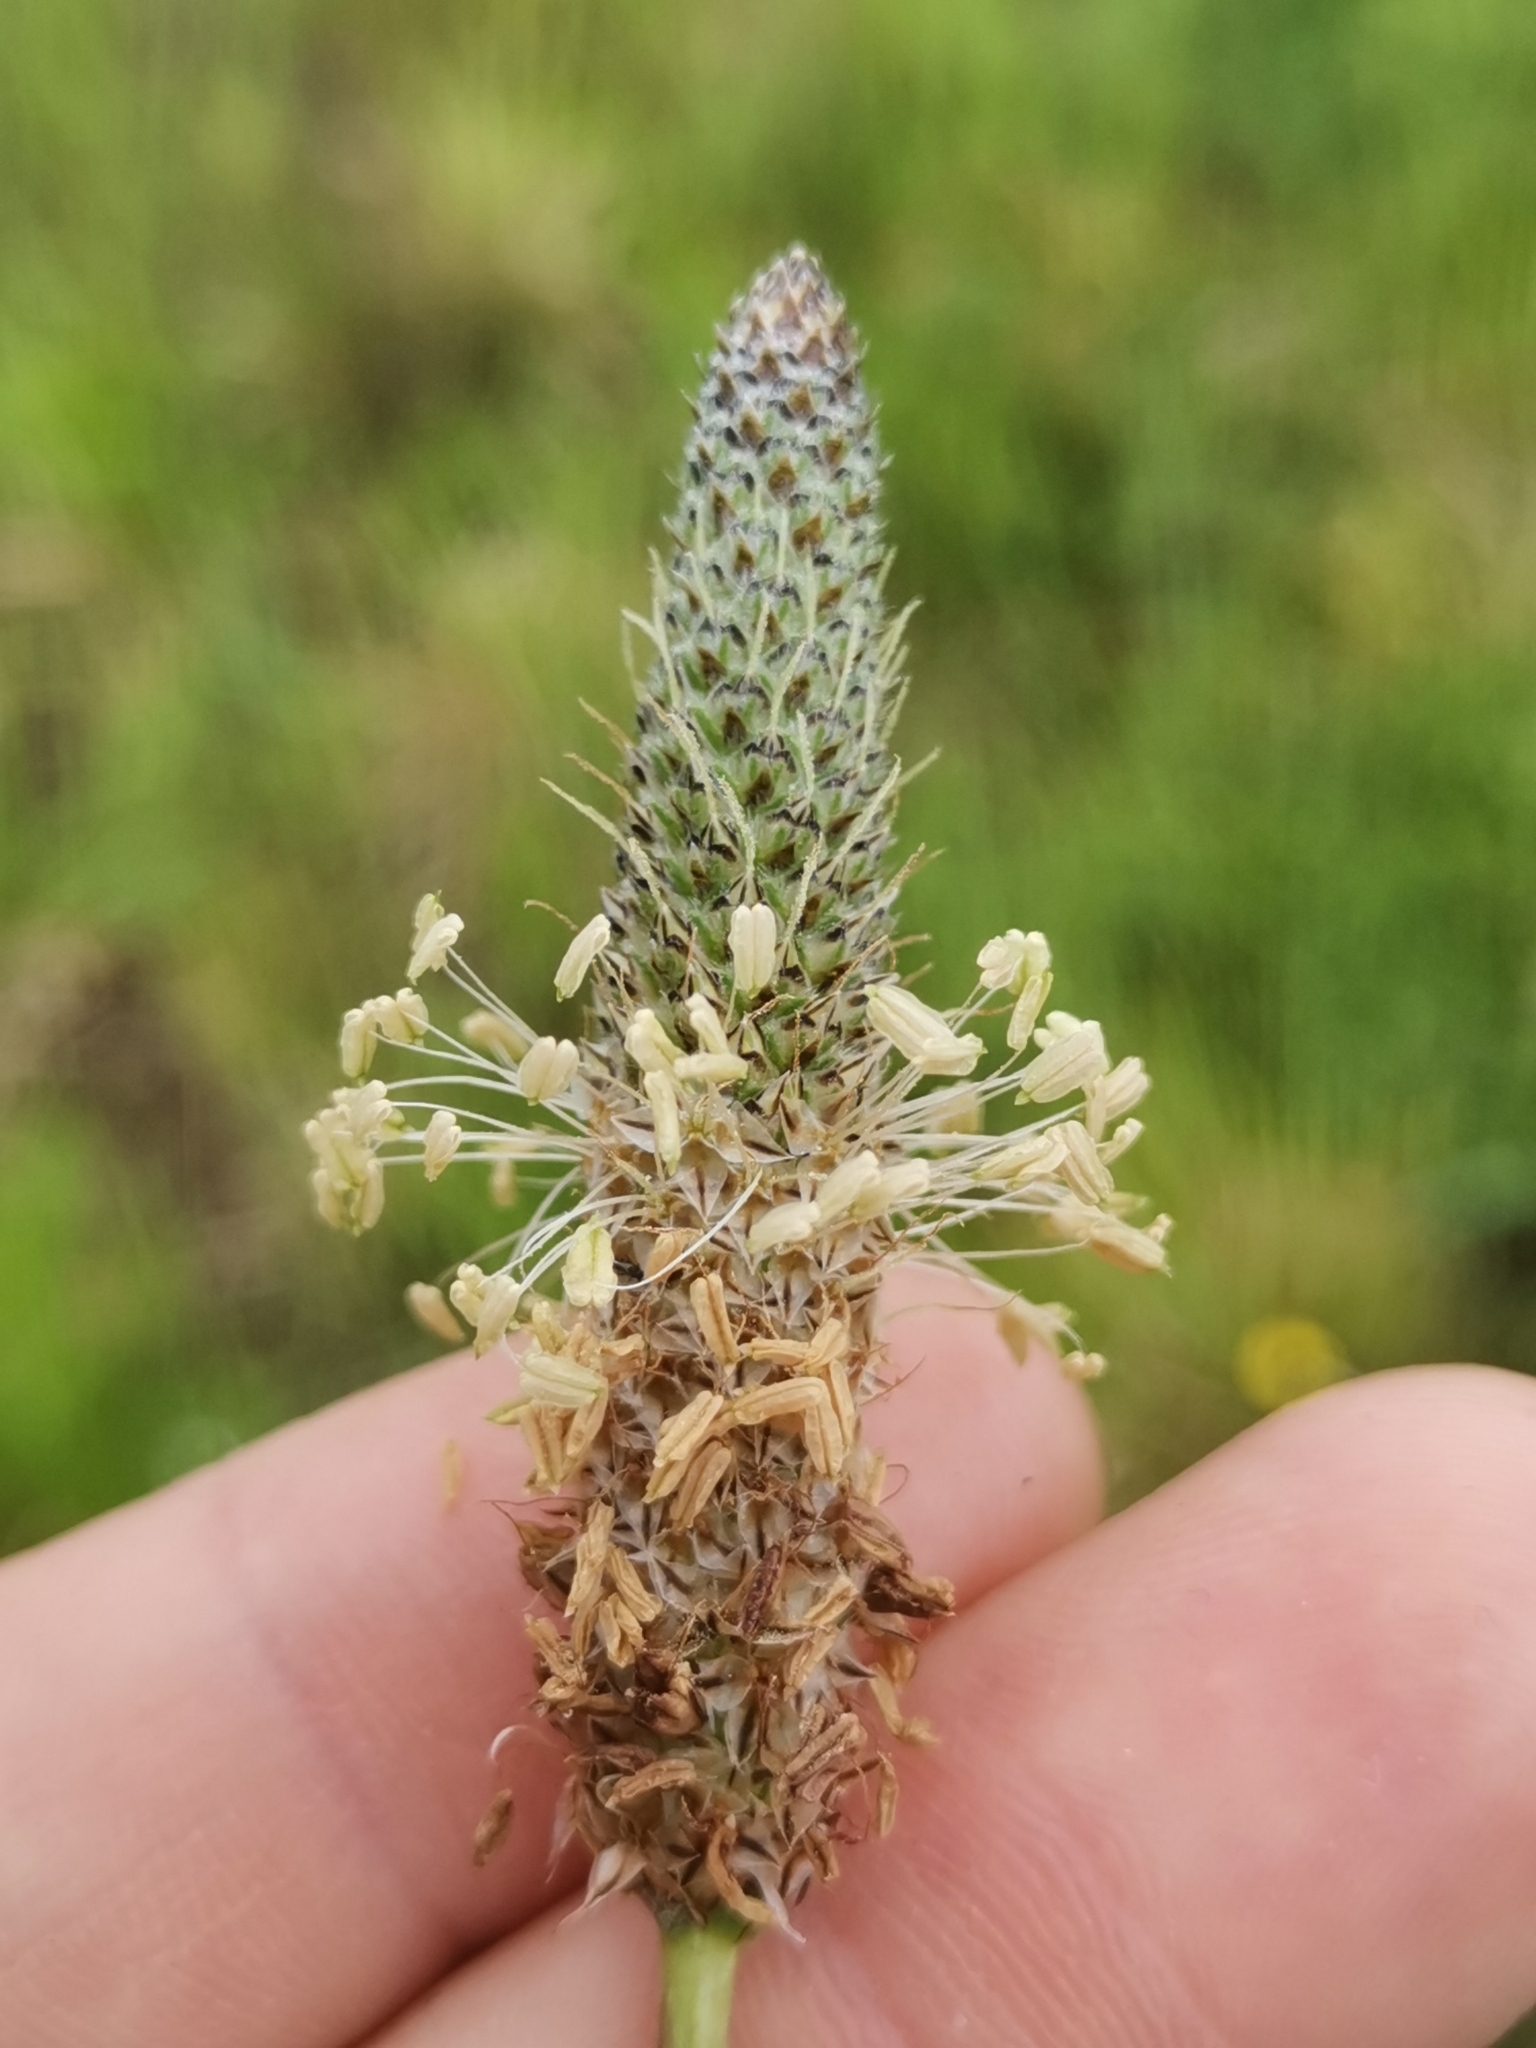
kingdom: Plantae
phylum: Tracheophyta
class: Magnoliopsida
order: Lamiales
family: Plantaginaceae
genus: Plantago
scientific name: Plantago altissima
